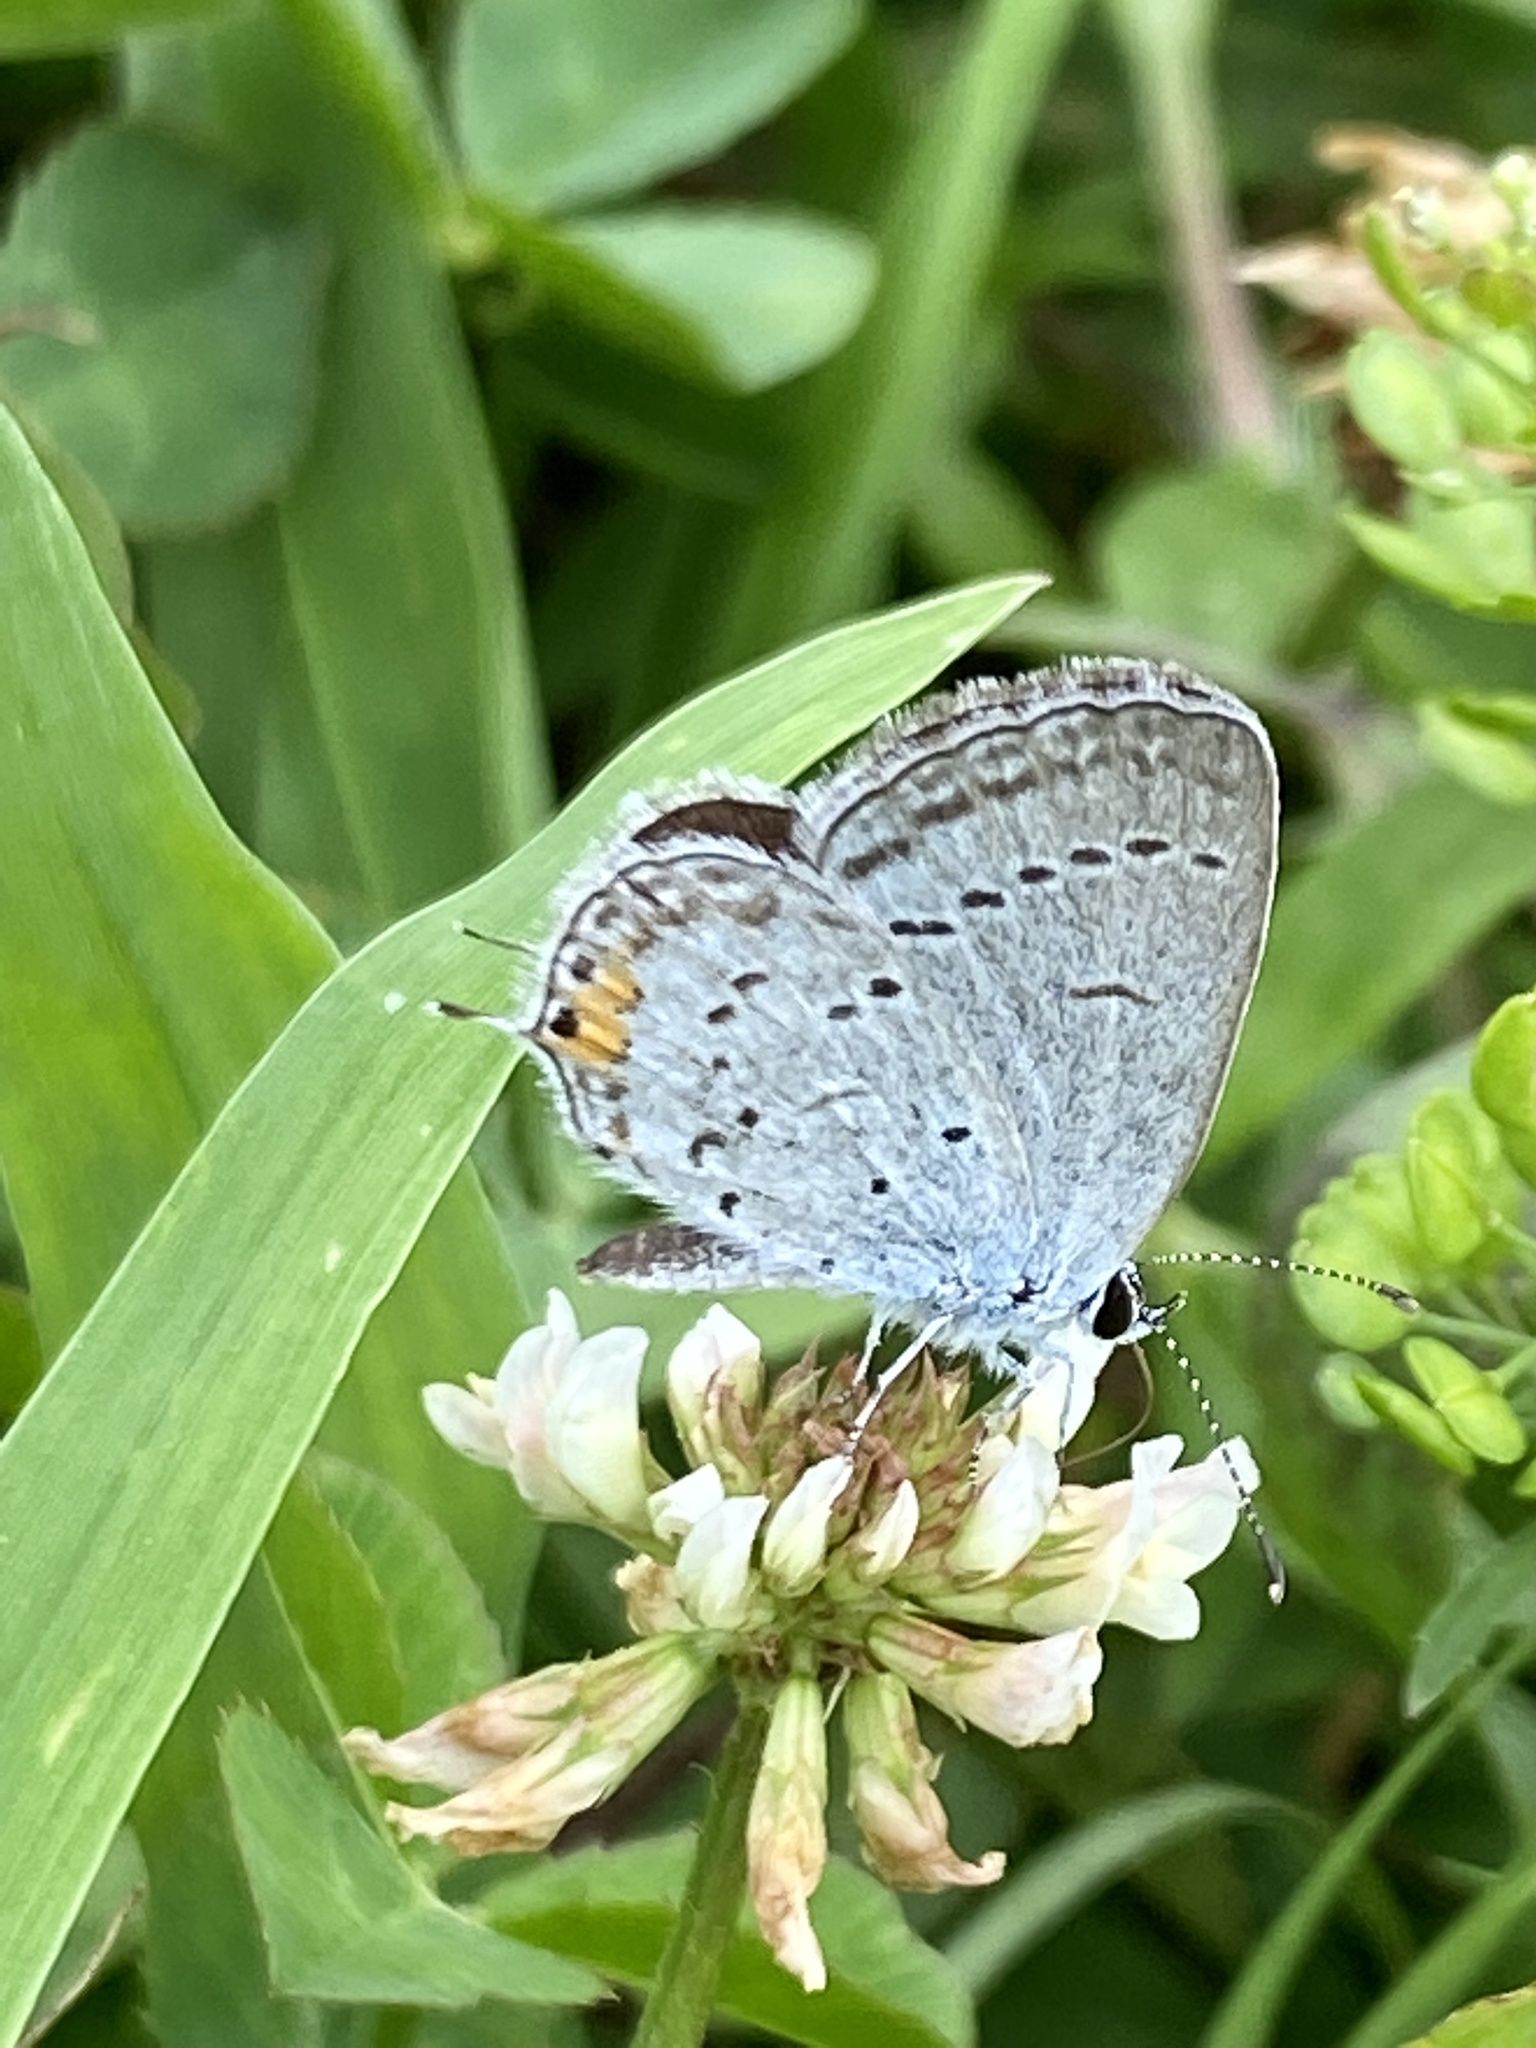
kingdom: Animalia
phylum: Arthropoda
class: Insecta
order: Lepidoptera
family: Lycaenidae
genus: Elkalyce
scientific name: Elkalyce comyntas
